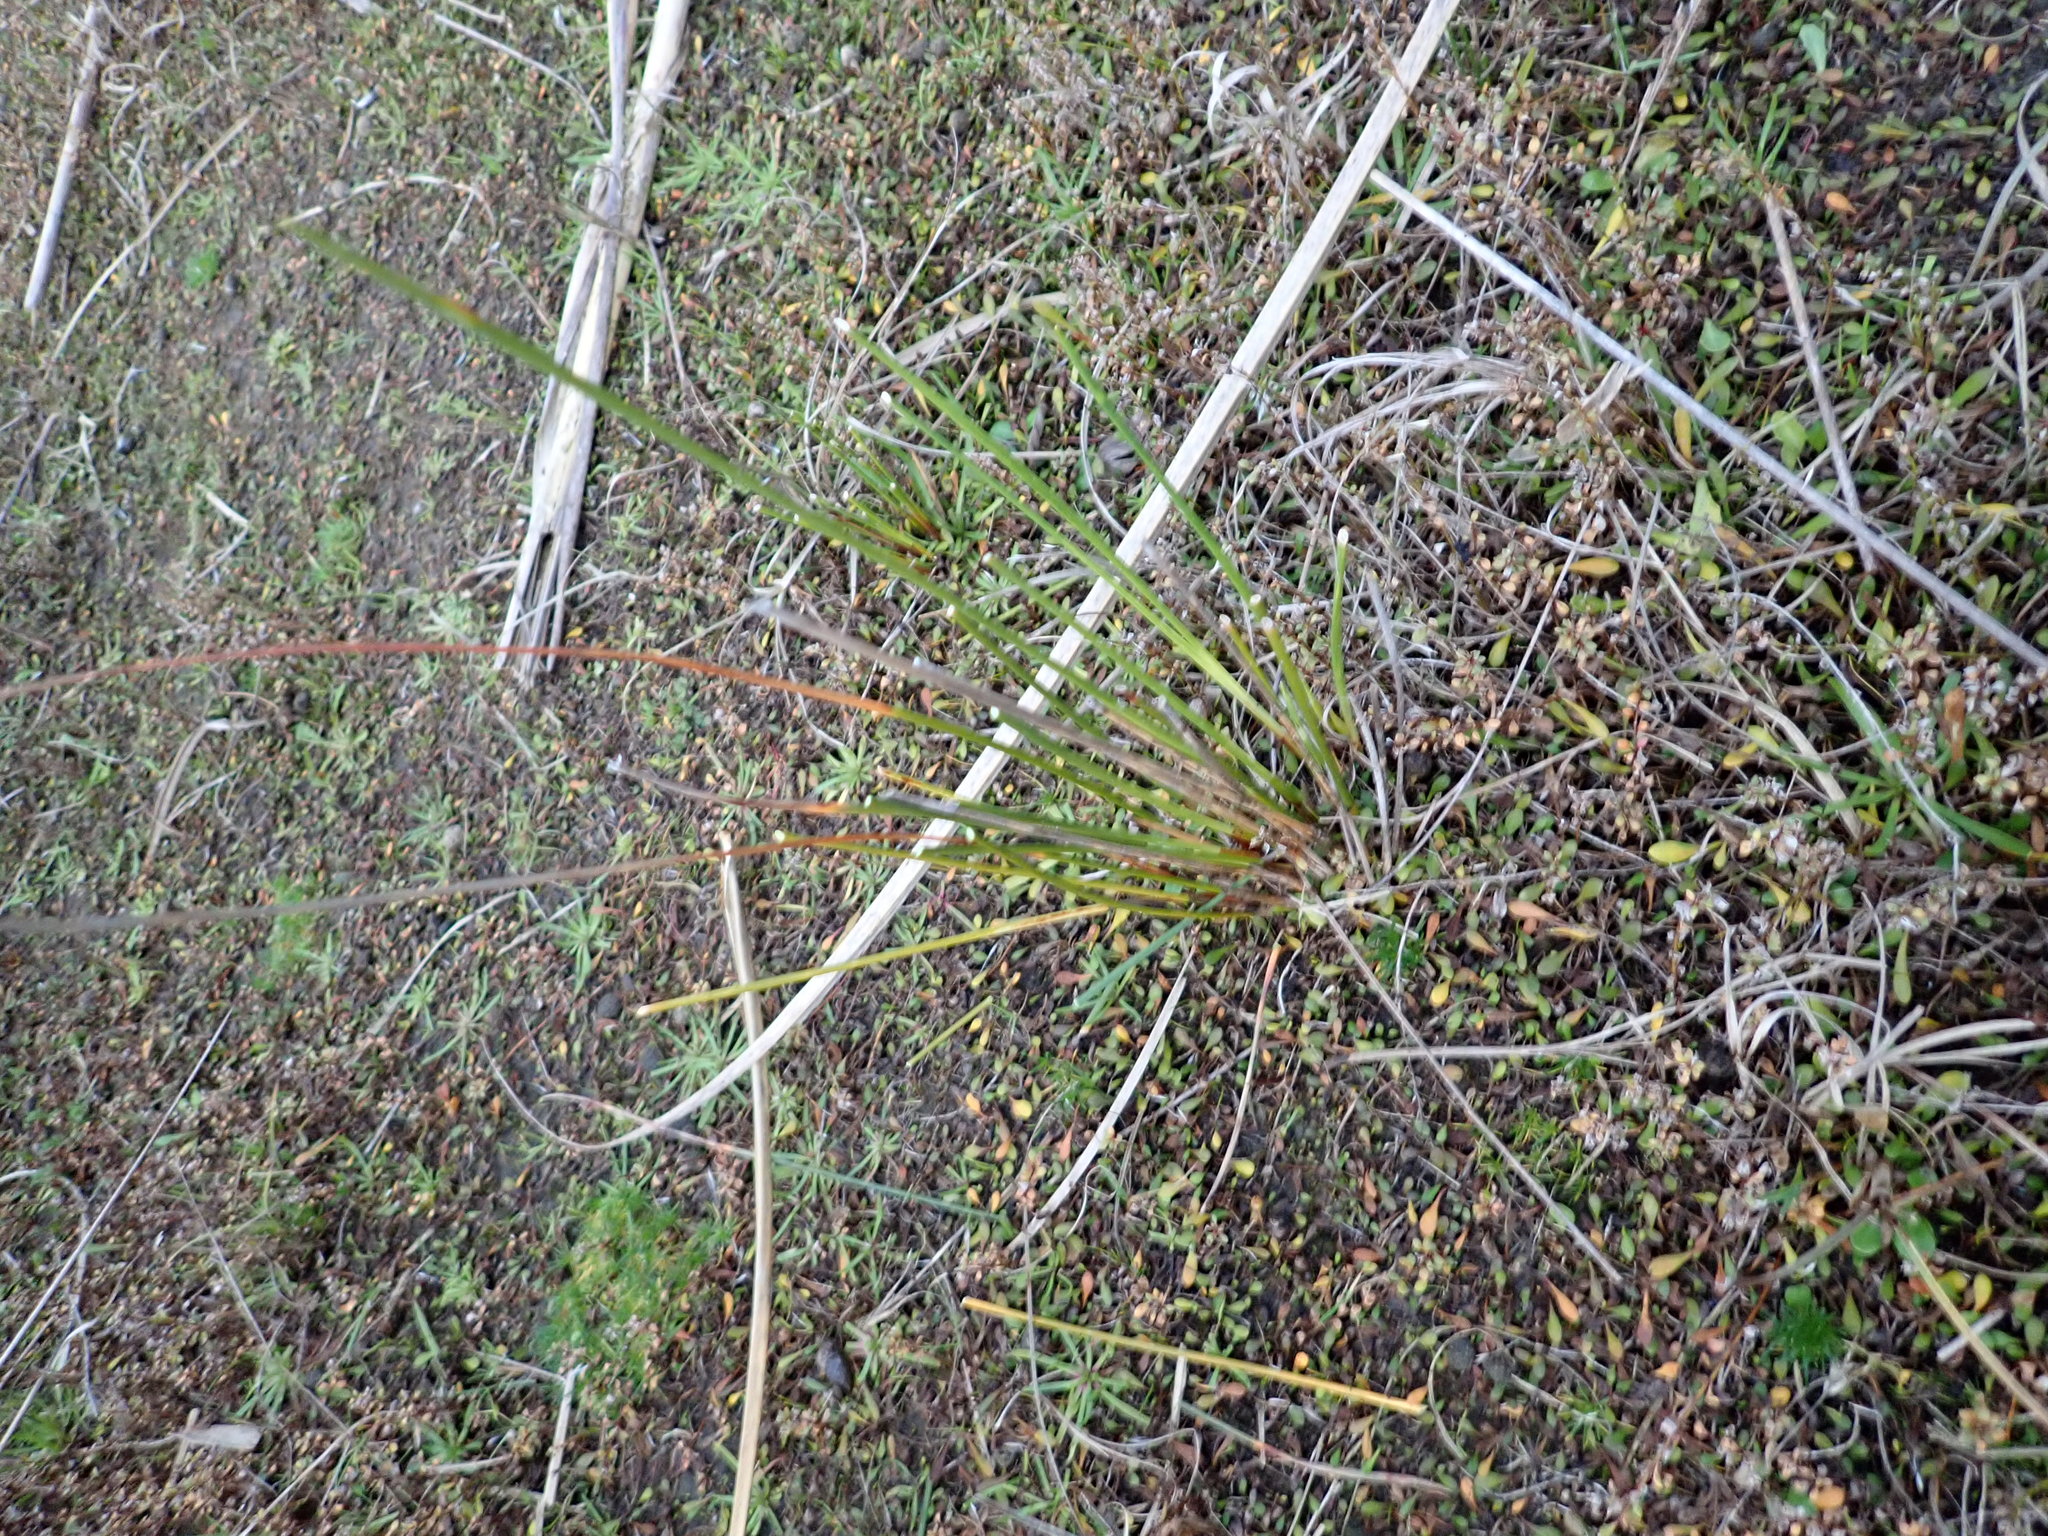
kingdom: Plantae
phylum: Tracheophyta
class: Liliopsida
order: Poales
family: Cyperaceae
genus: Ficinia
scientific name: Ficinia nodosa
